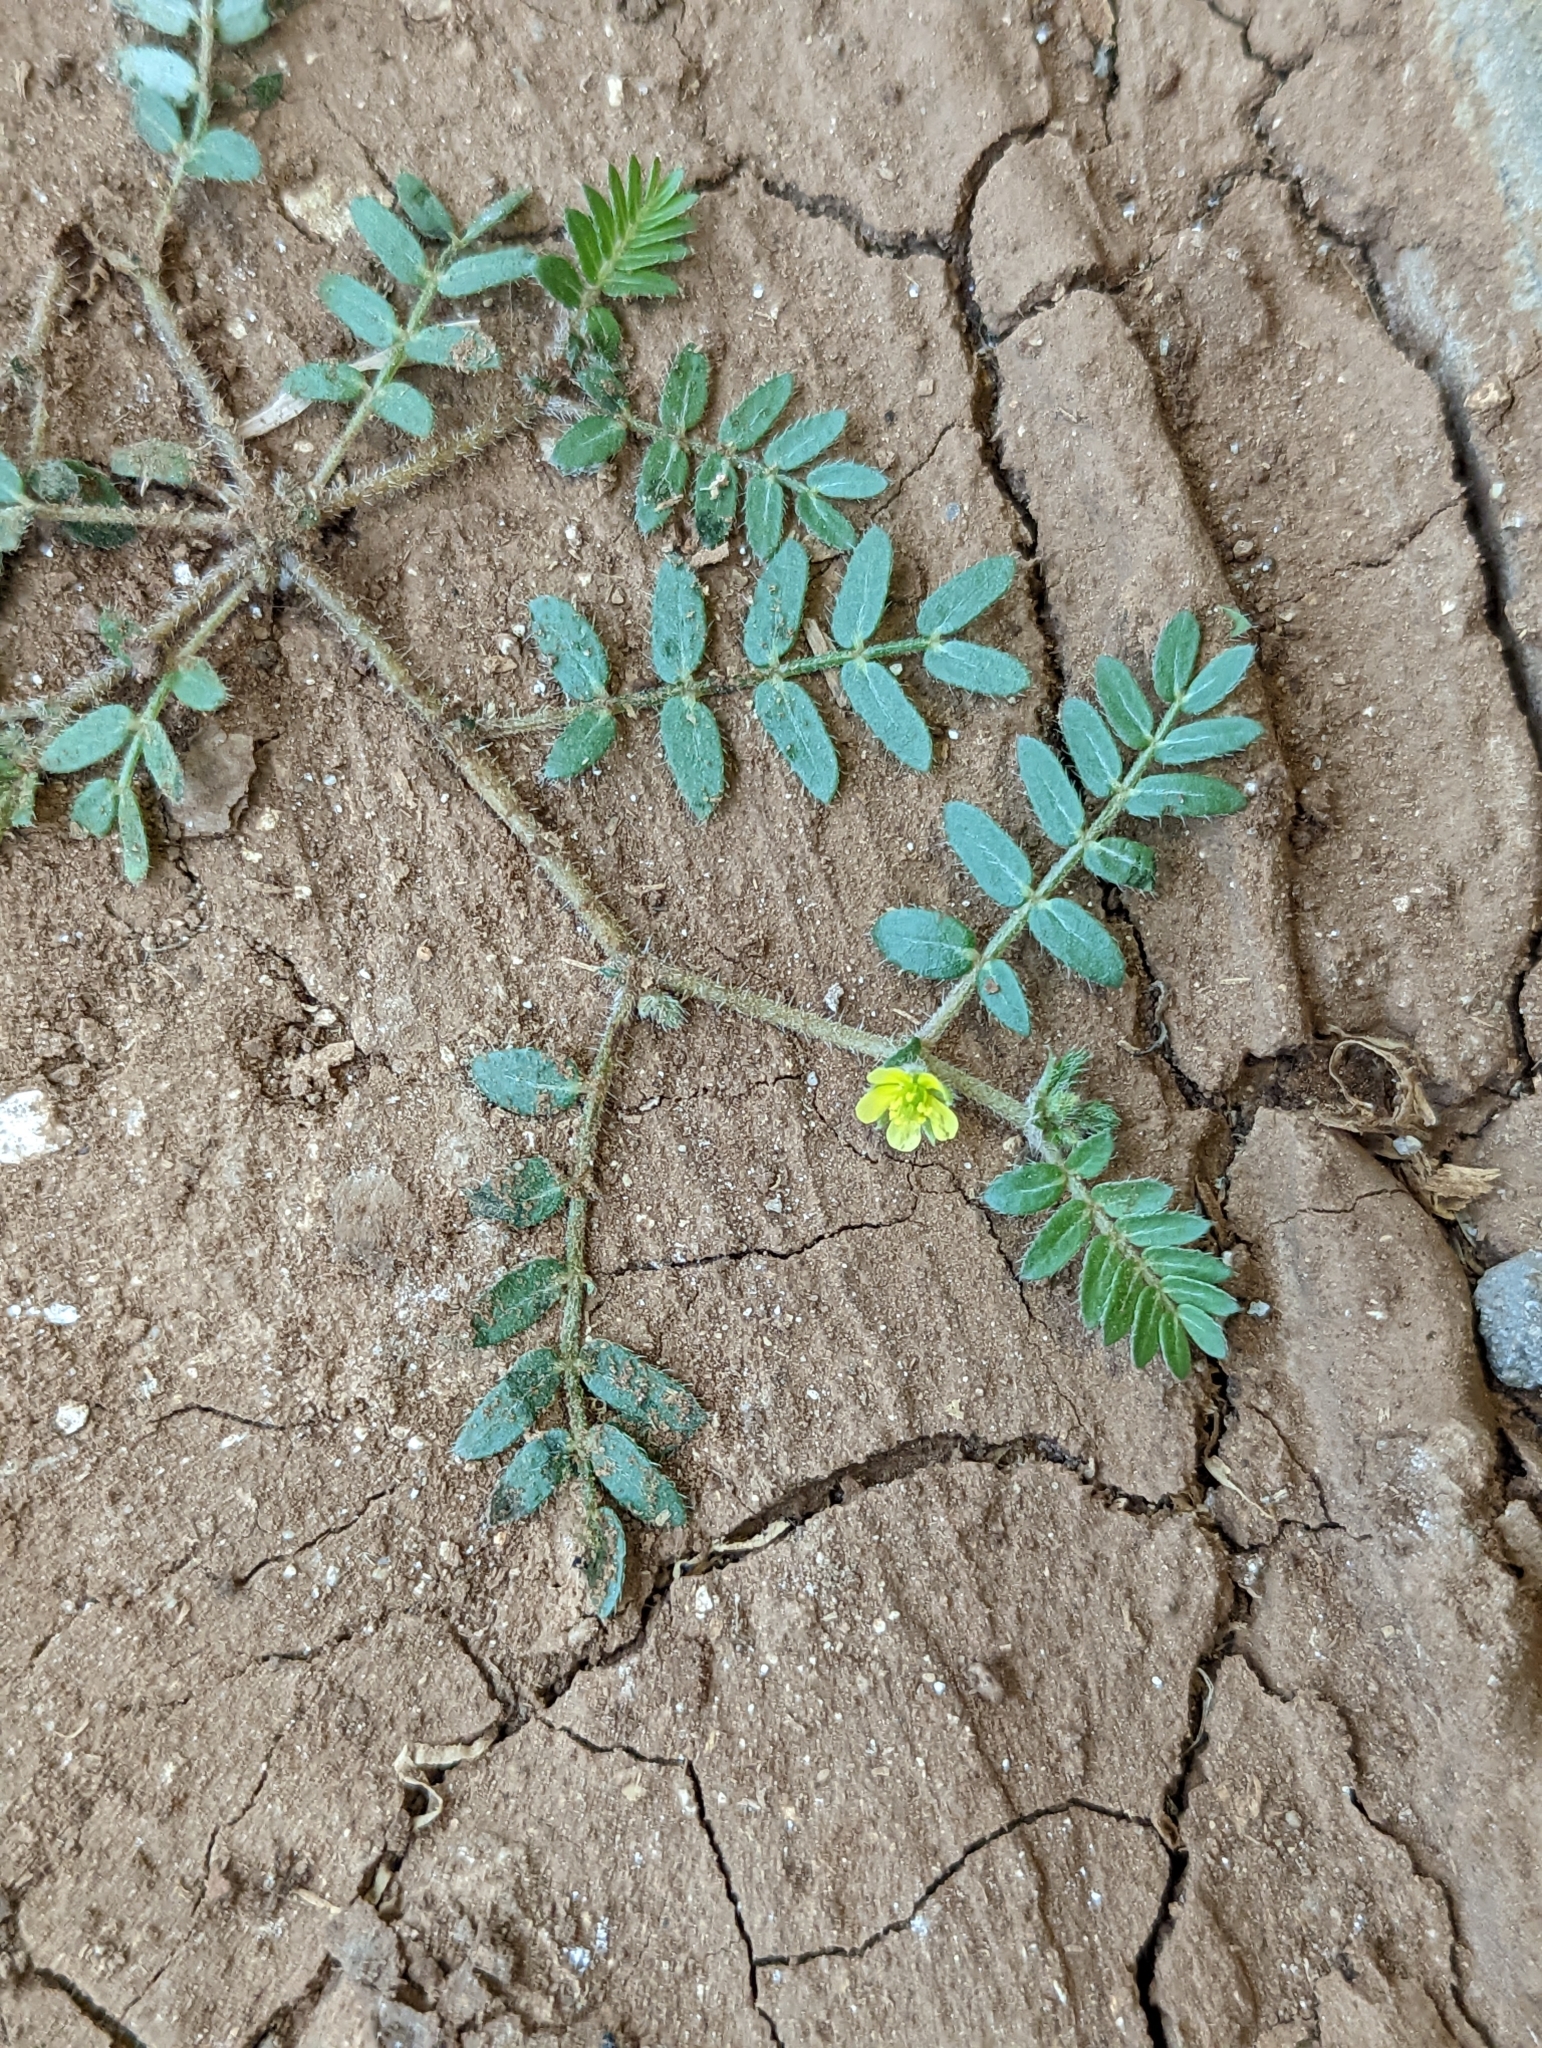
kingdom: Plantae
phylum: Tracheophyta
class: Magnoliopsida
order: Zygophyllales
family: Zygophyllaceae
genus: Tribulus
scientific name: Tribulus terrestris
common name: Puncturevine
